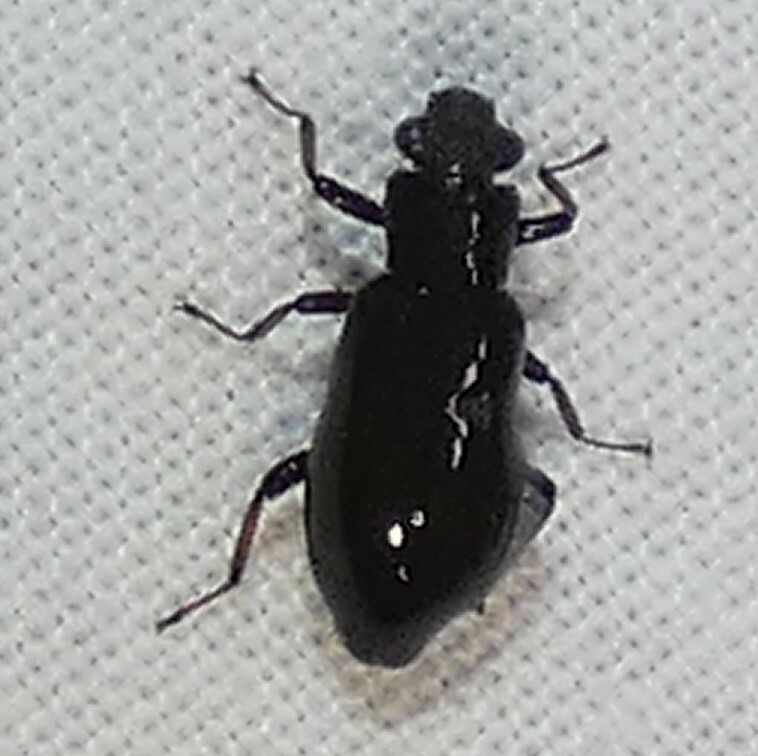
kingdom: Animalia
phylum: Arthropoda
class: Insecta
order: Coleoptera
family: Hydrochidae
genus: Hydrochus
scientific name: Hydrochus
